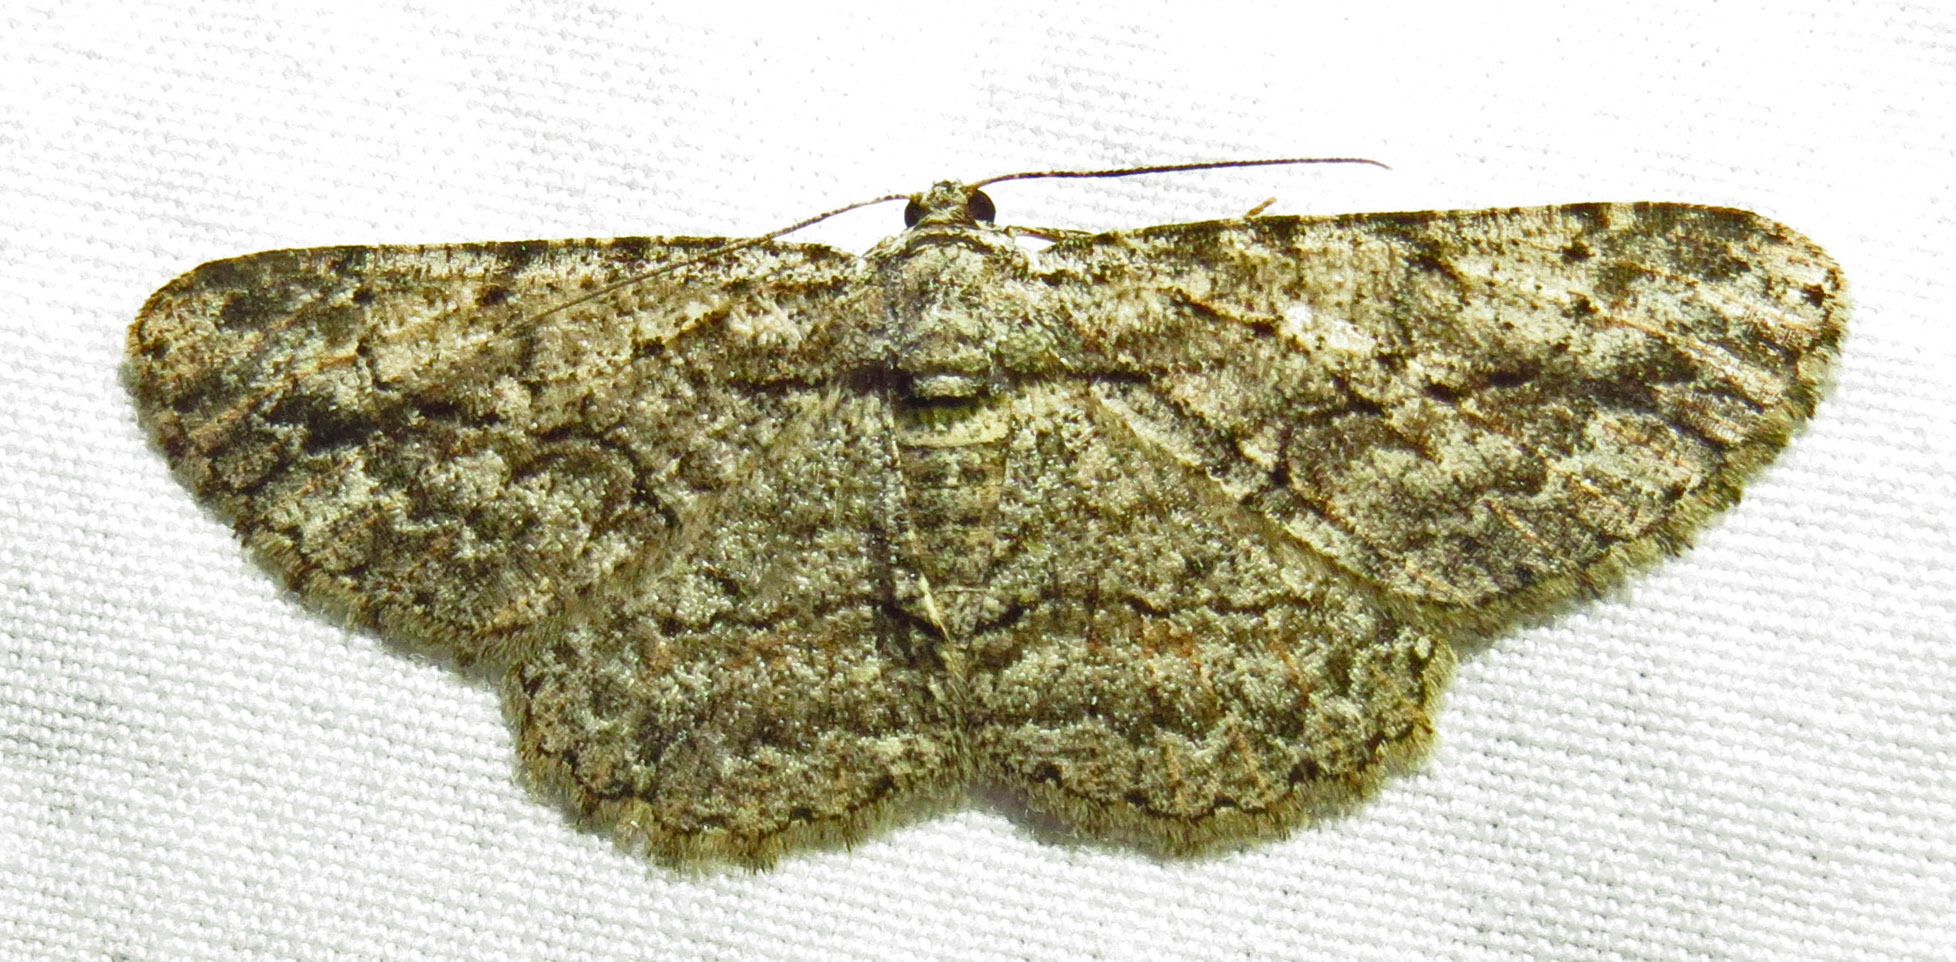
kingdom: Animalia
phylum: Arthropoda
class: Insecta
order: Lepidoptera
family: Geometridae
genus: Anavitrinella
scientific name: Anavitrinella pampinaria
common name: Common gray
